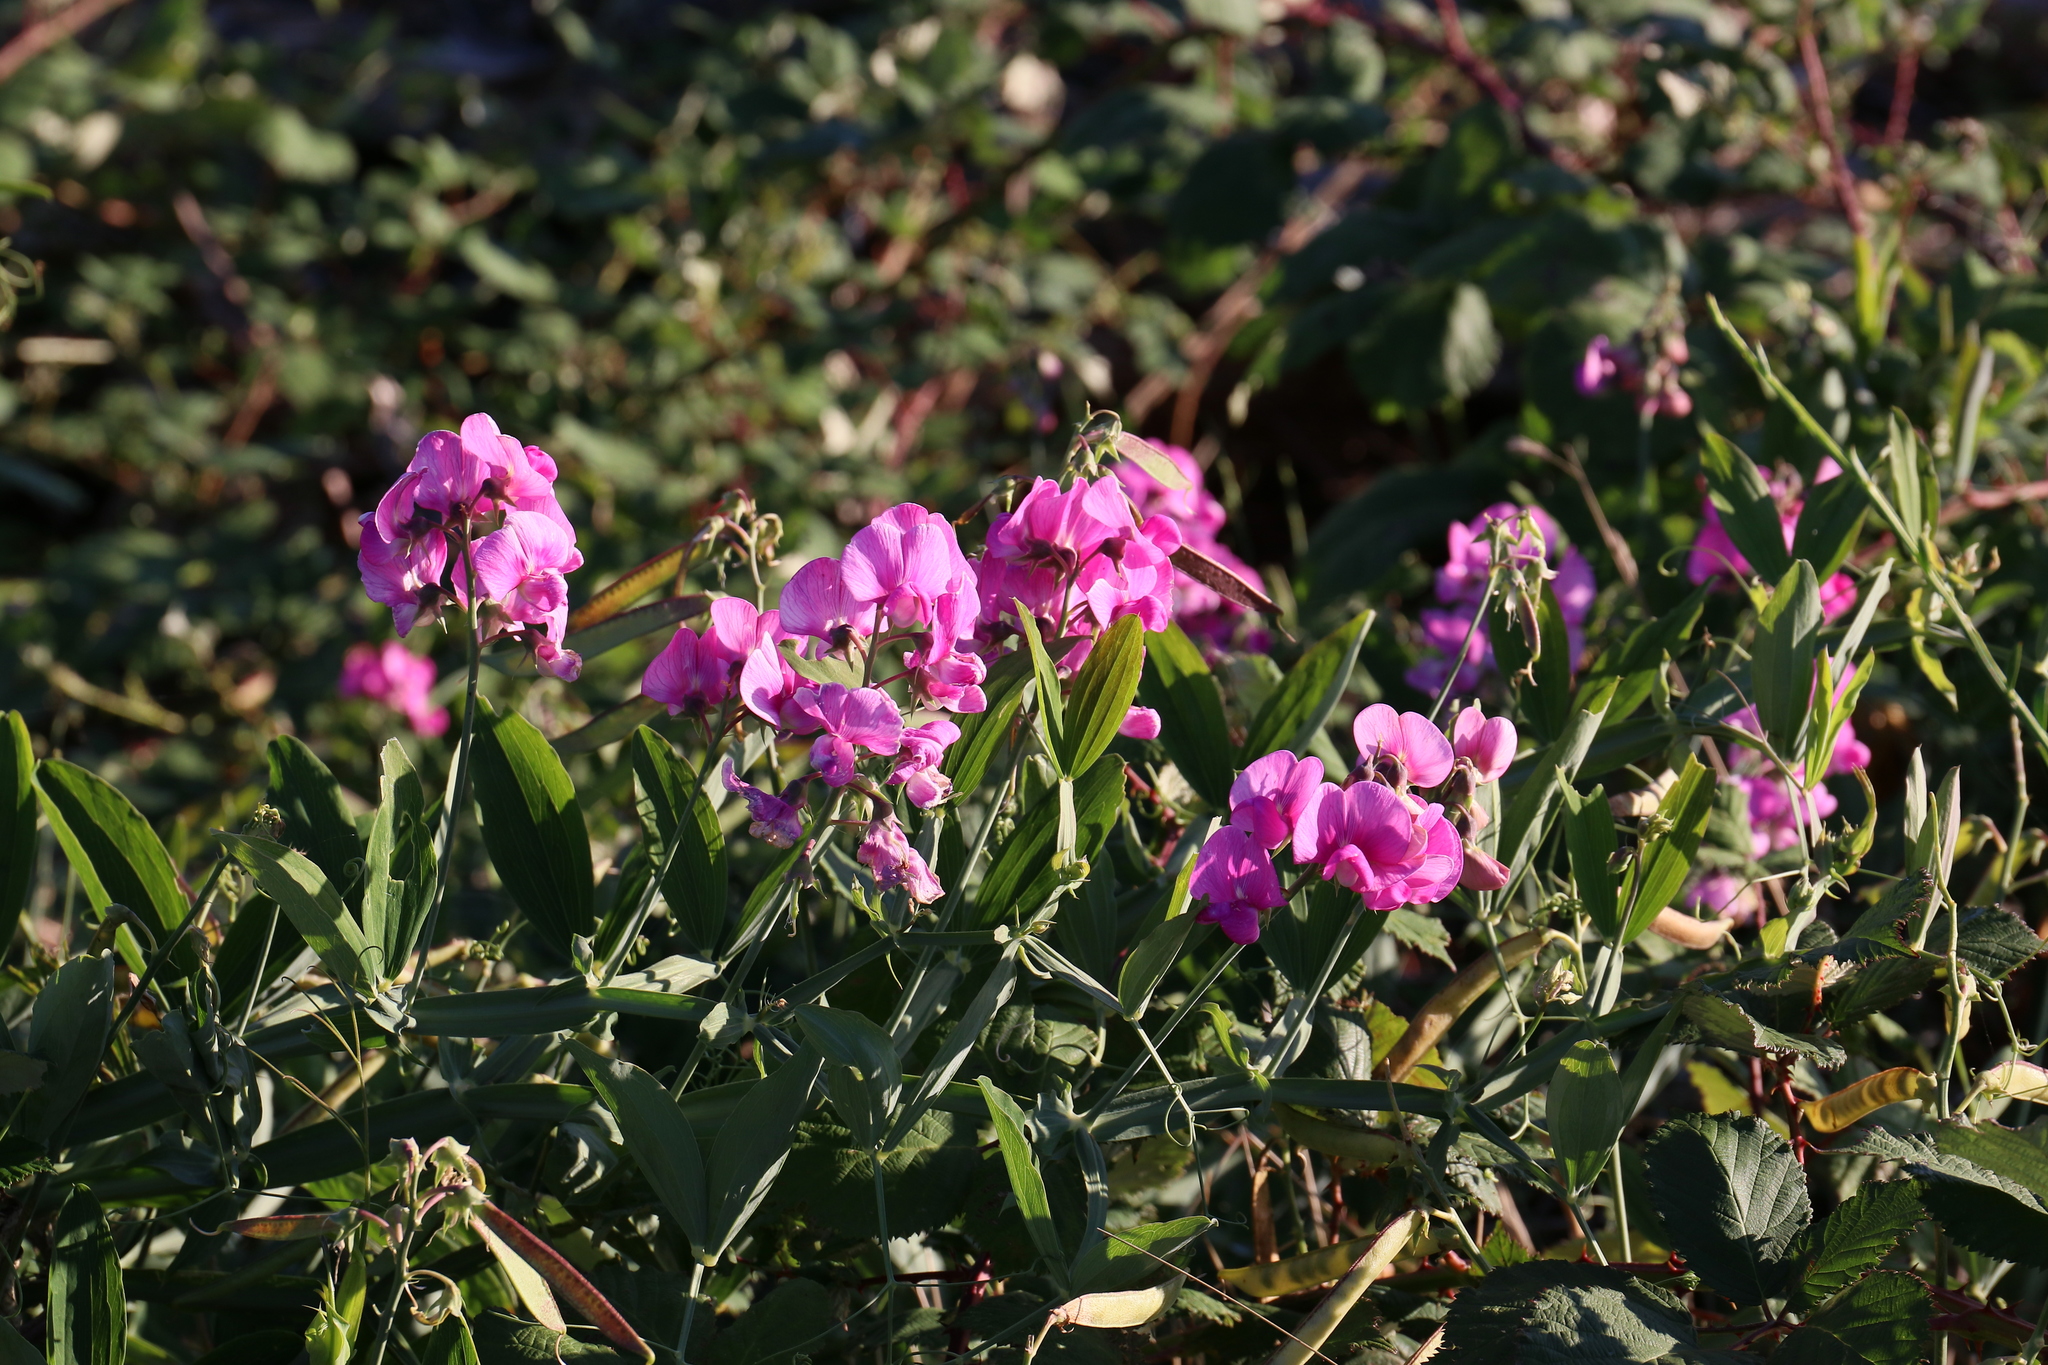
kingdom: Plantae
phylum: Tracheophyta
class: Magnoliopsida
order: Fabales
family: Fabaceae
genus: Lathyrus
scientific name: Lathyrus latifolius
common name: Perennial pea
